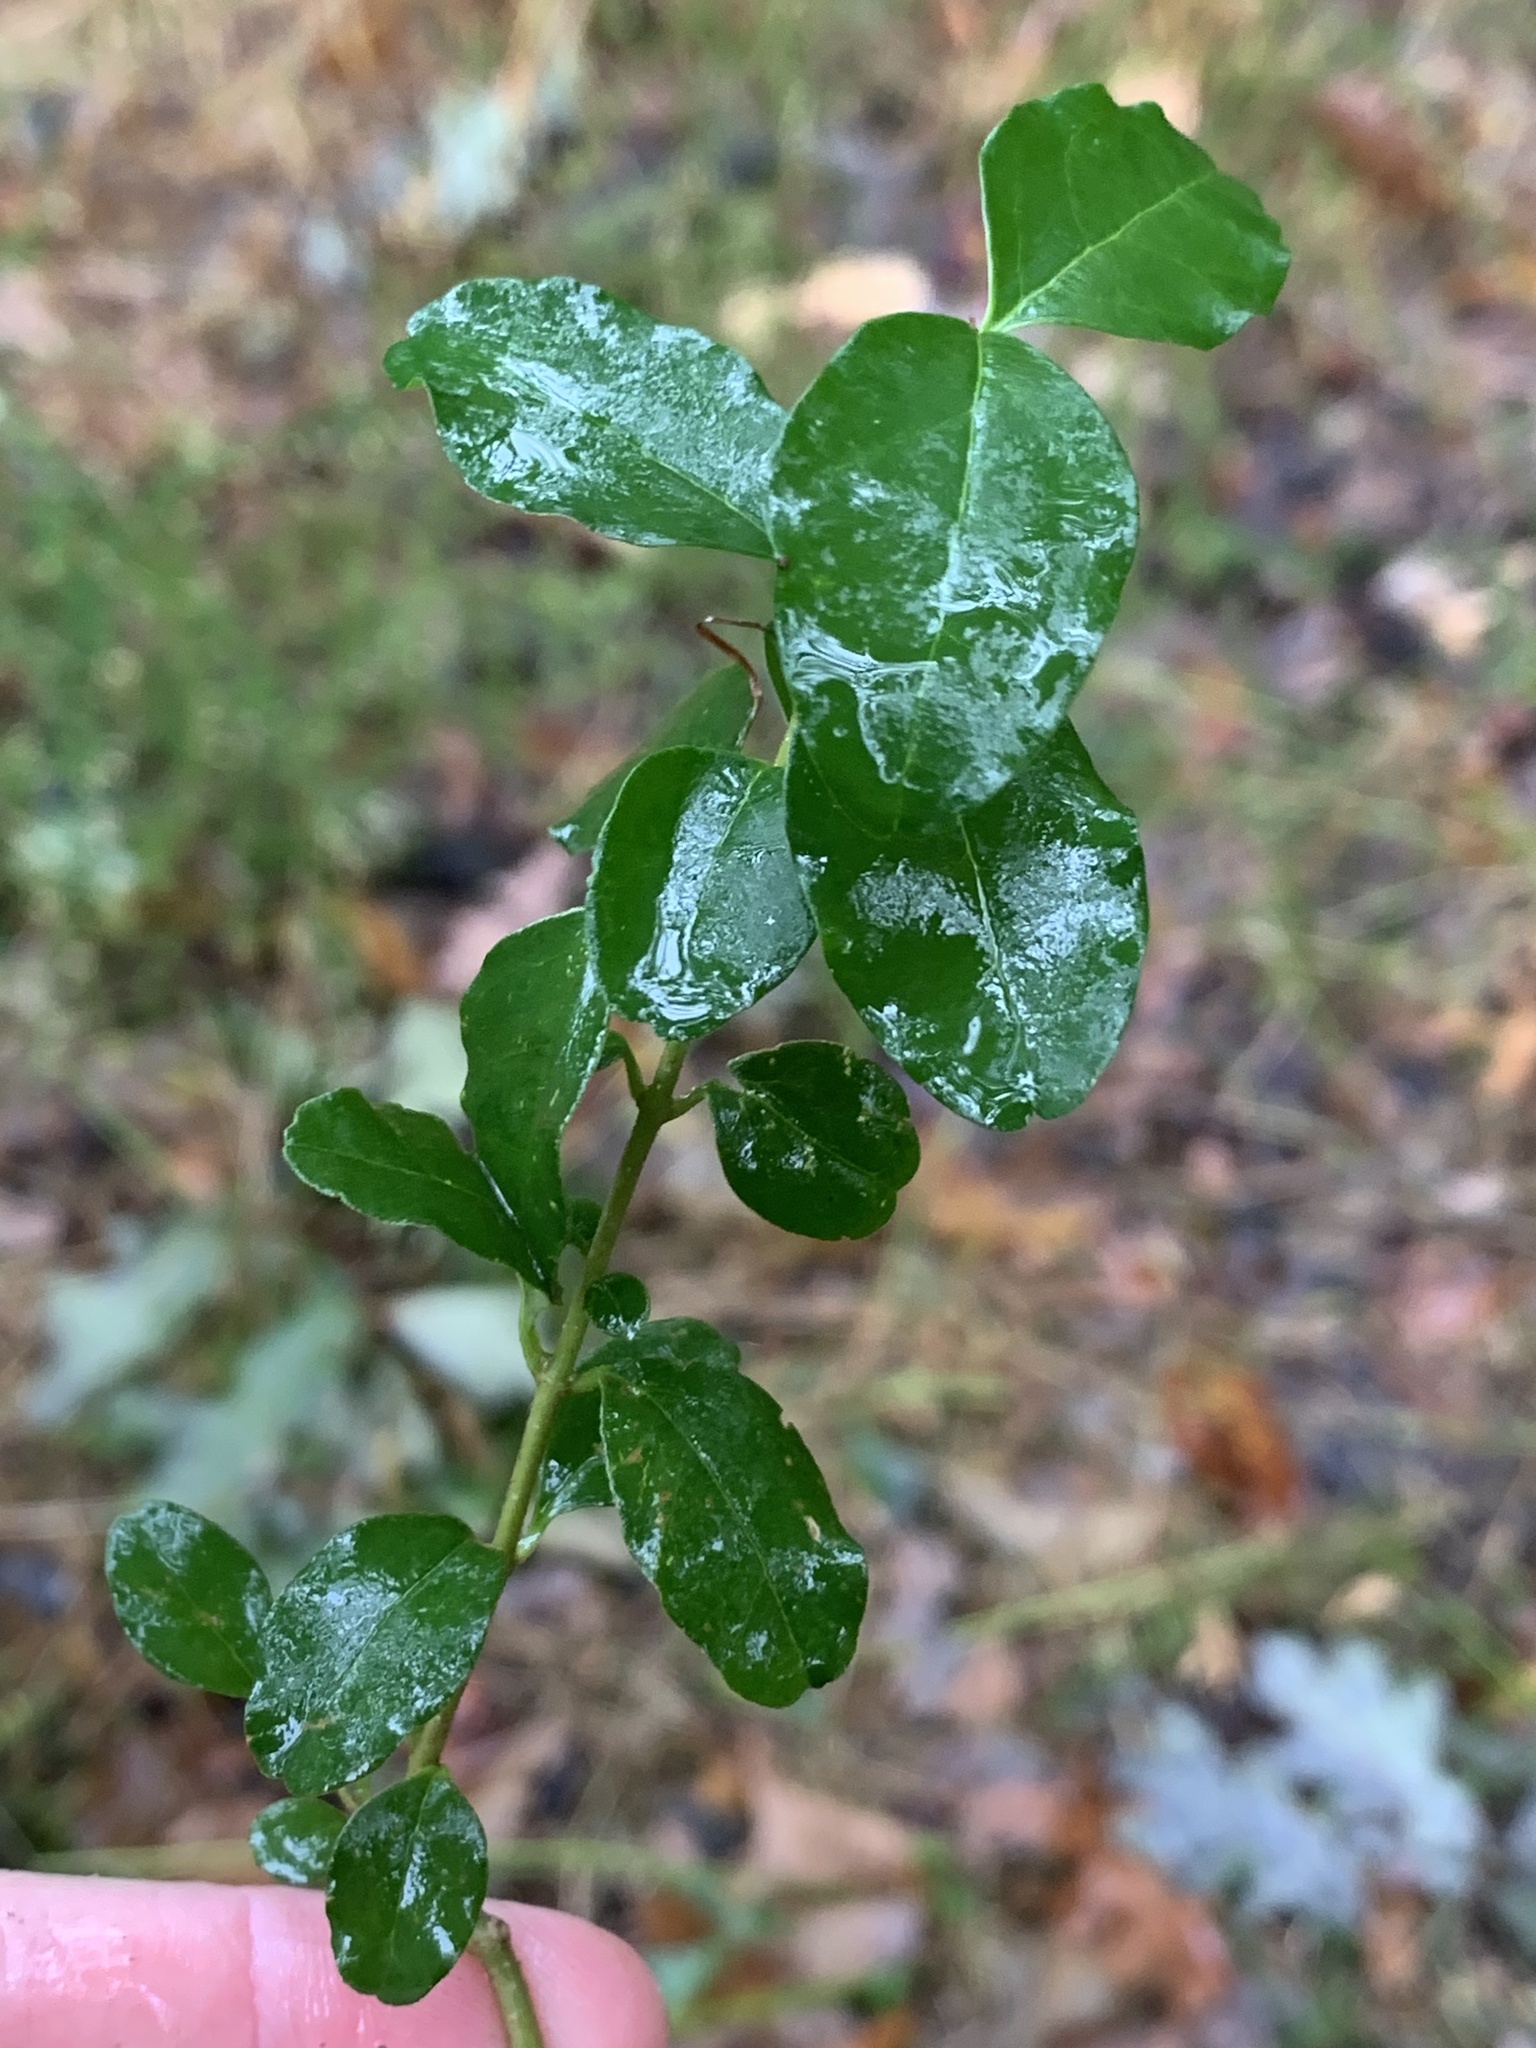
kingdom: Plantae
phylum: Tracheophyta
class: Magnoliopsida
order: Lamiales
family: Oleaceae
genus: Ligustrum
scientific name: Ligustrum sinense
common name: Chinese privet
